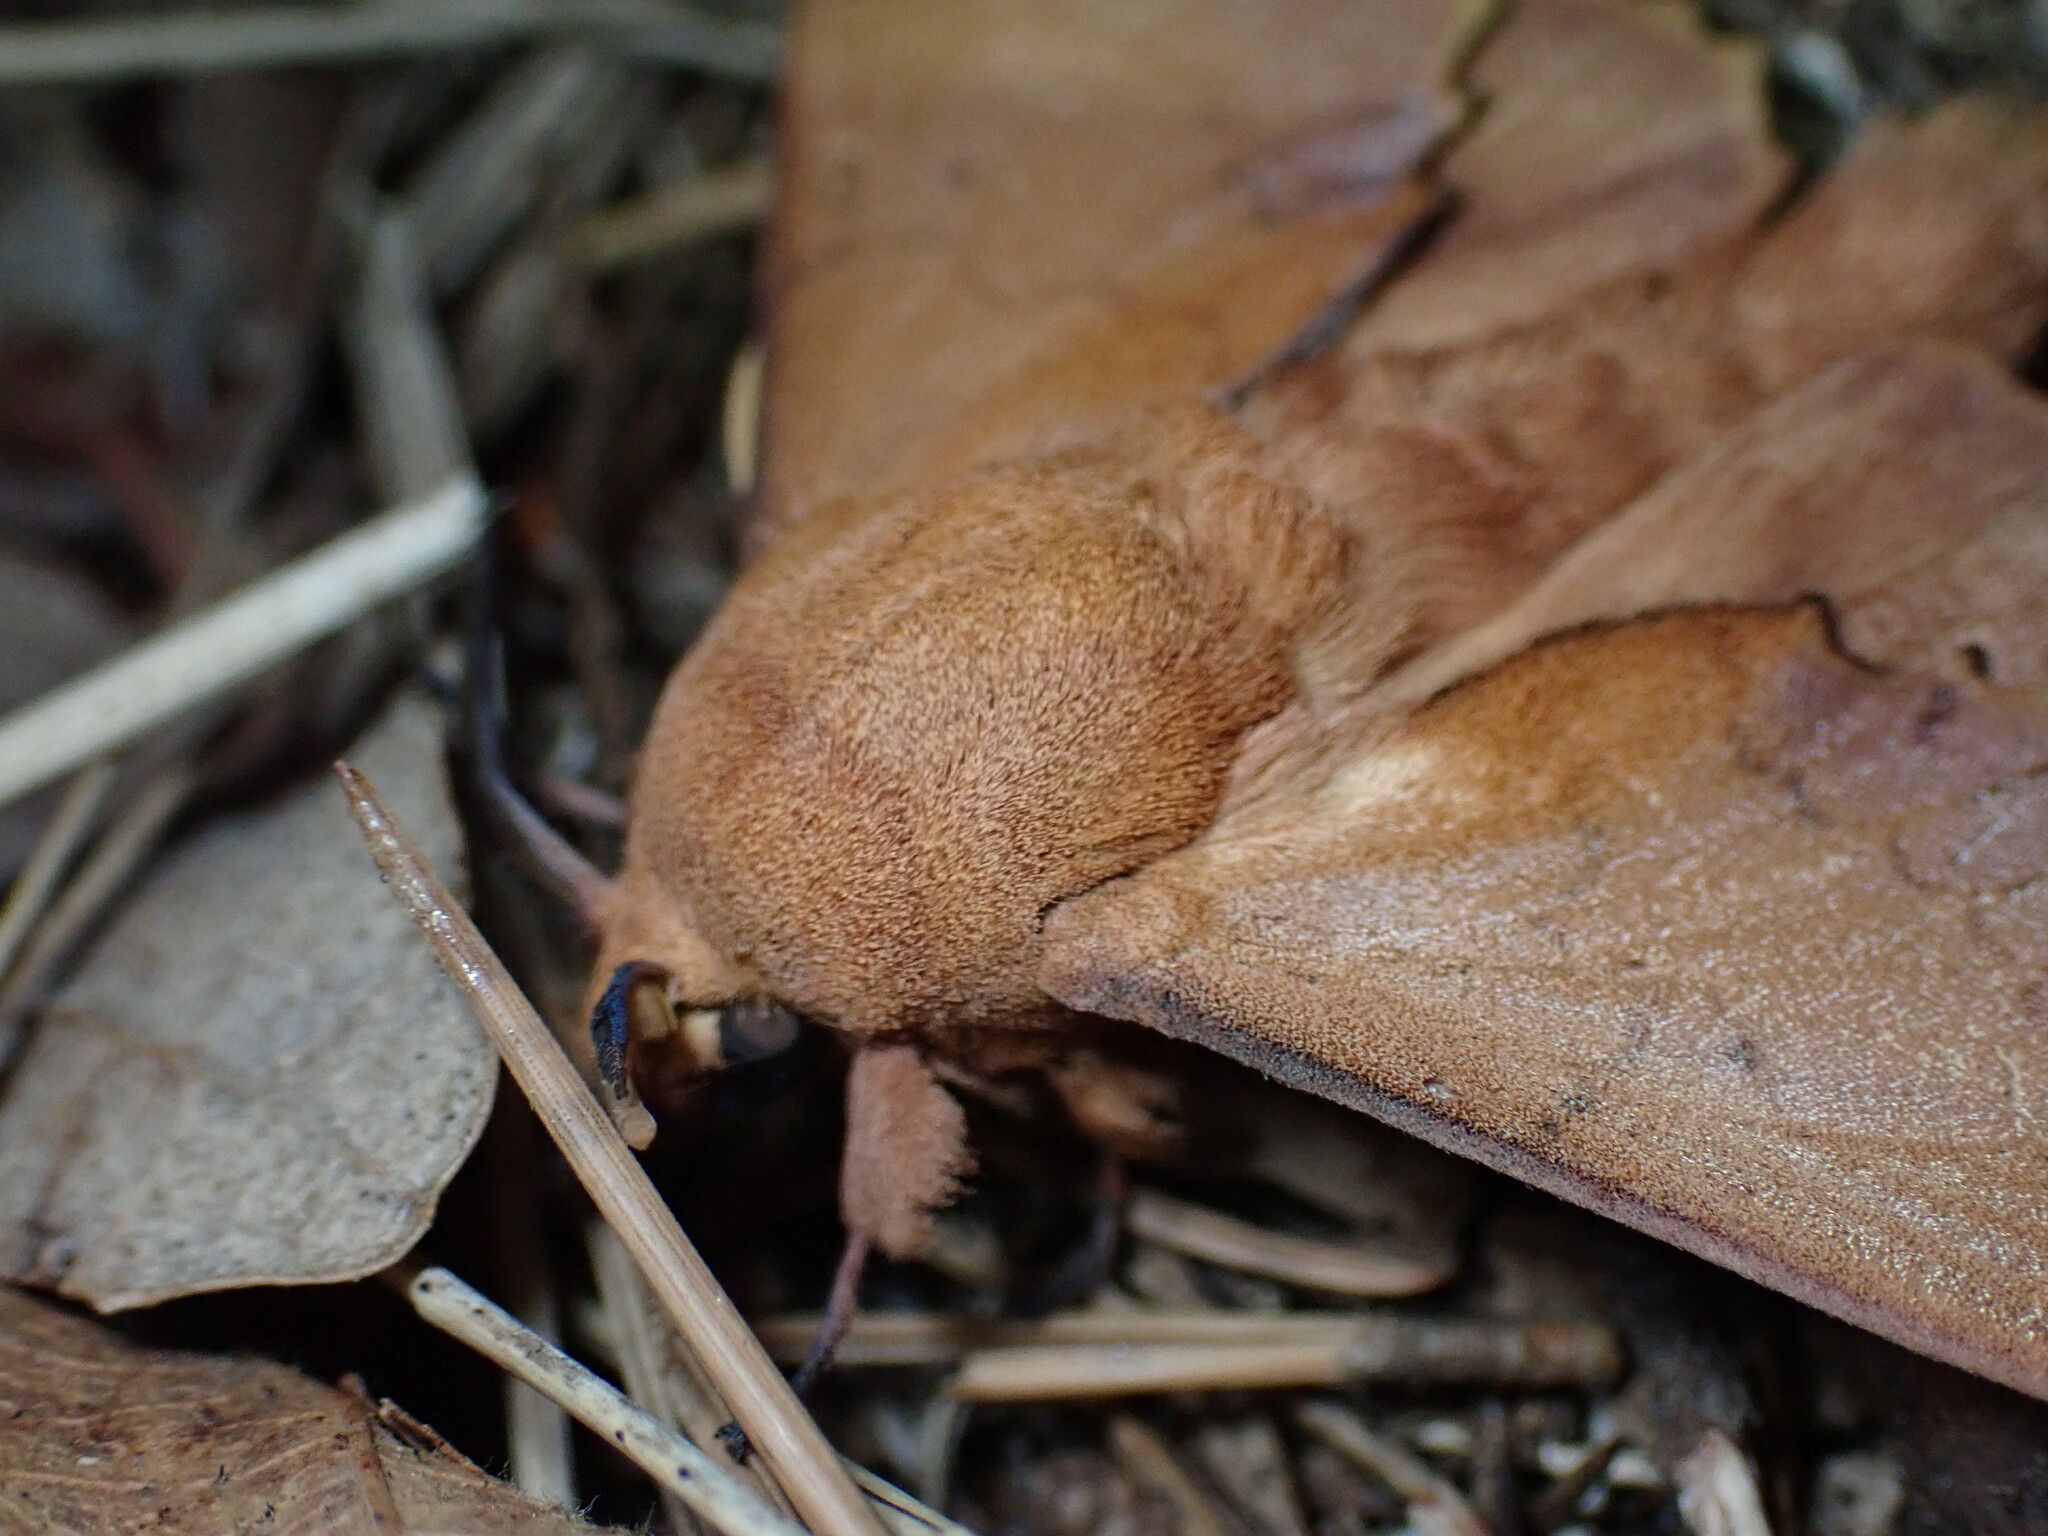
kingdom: Animalia
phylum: Arthropoda
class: Insecta
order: Lepidoptera
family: Lasiocampidae
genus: Gastropacha
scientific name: Gastropacha quercifolia
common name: Lappet
